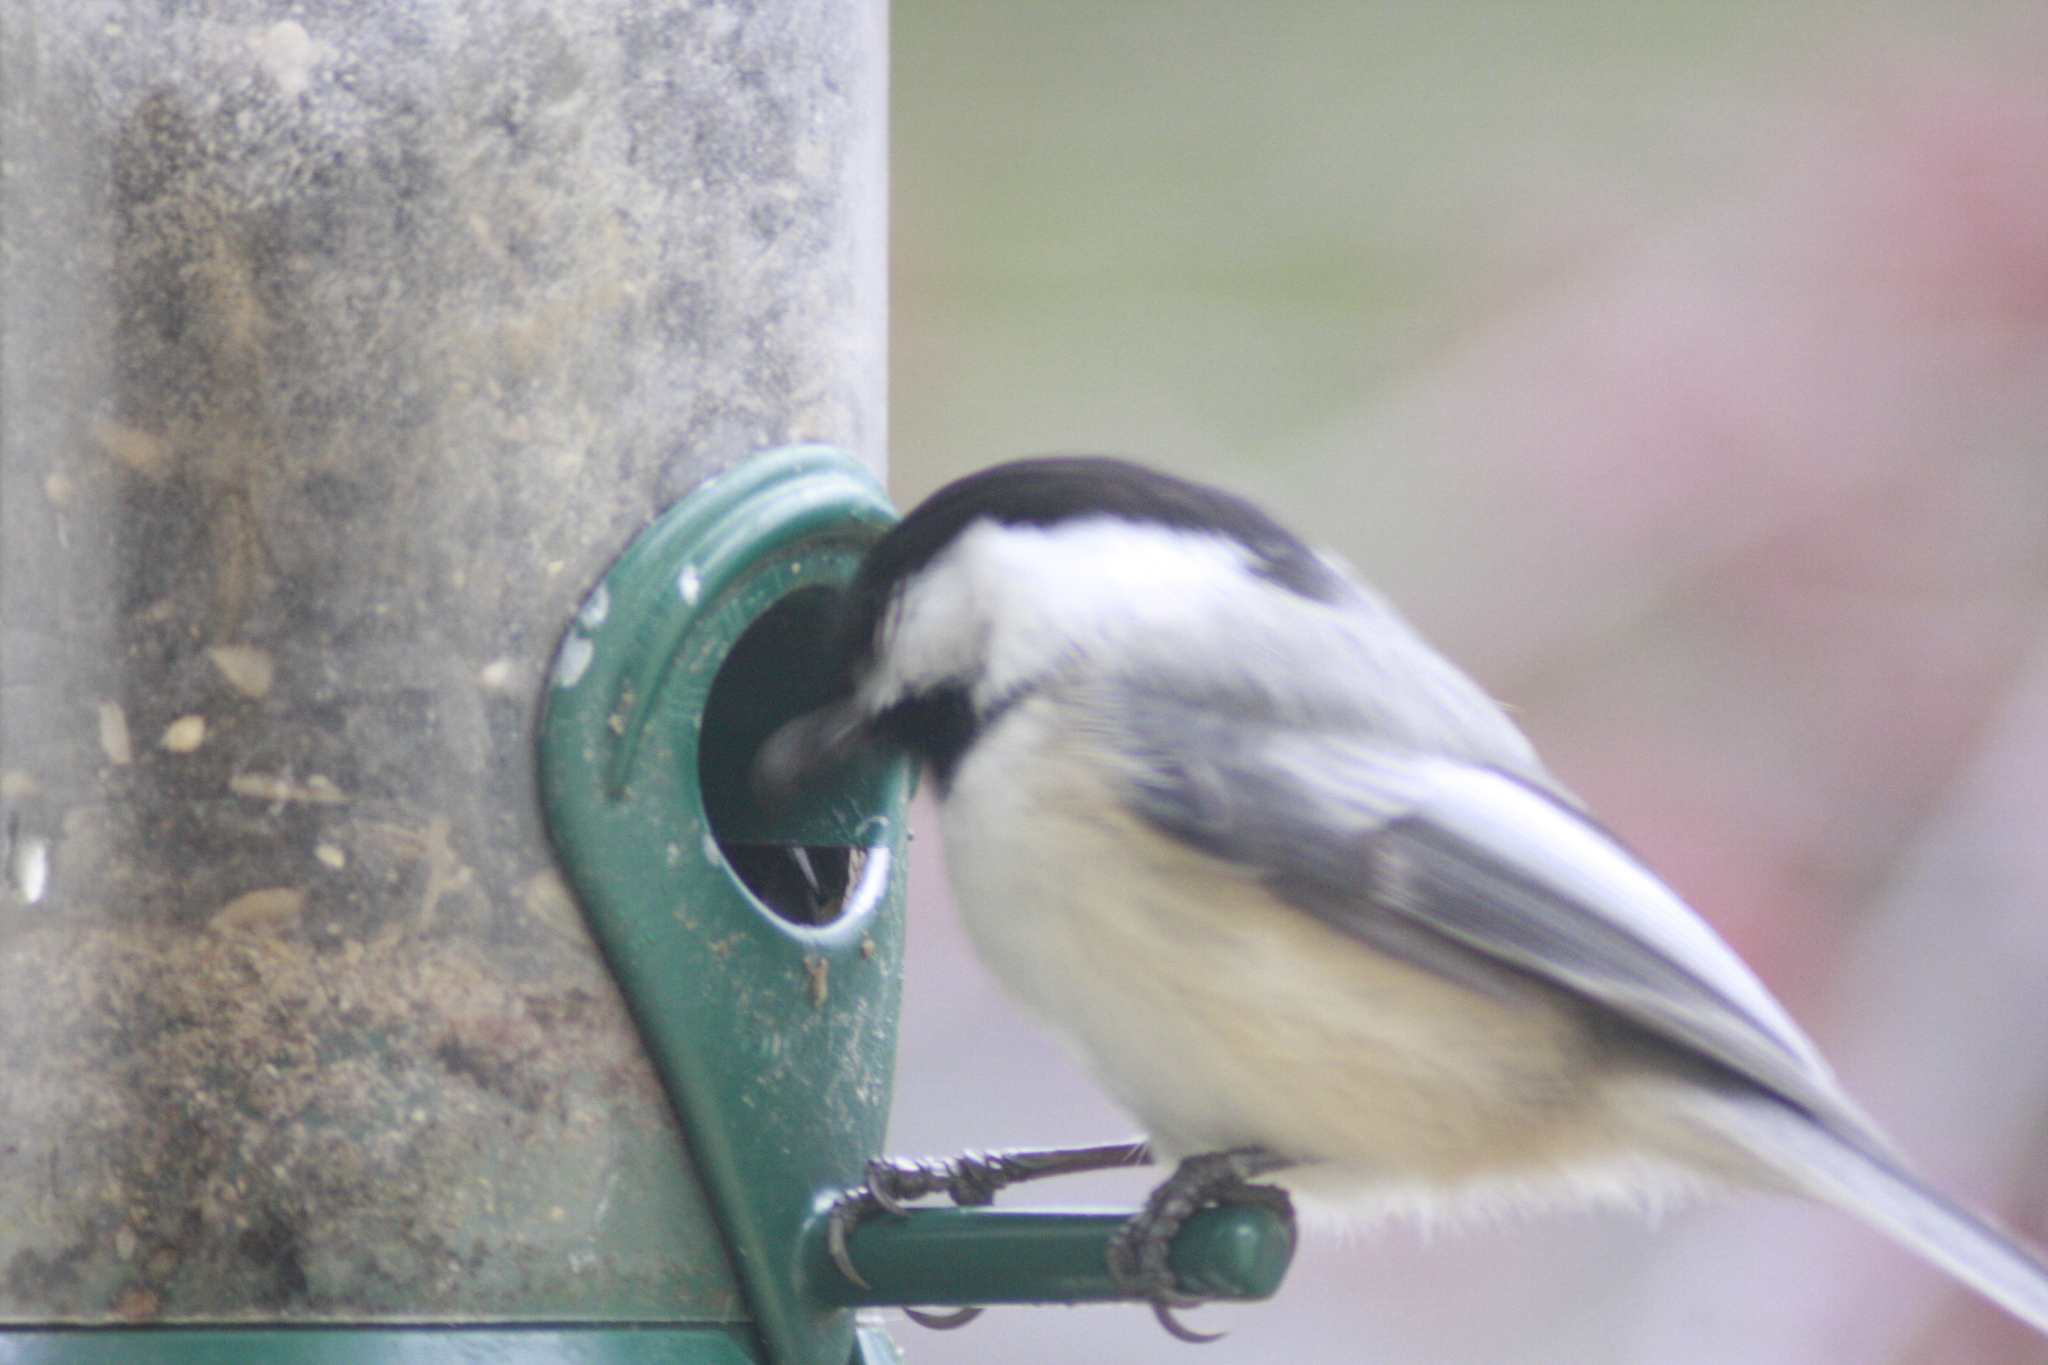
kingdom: Animalia
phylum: Chordata
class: Aves
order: Passeriformes
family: Paridae
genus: Poecile
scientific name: Poecile atricapillus
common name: Black-capped chickadee
